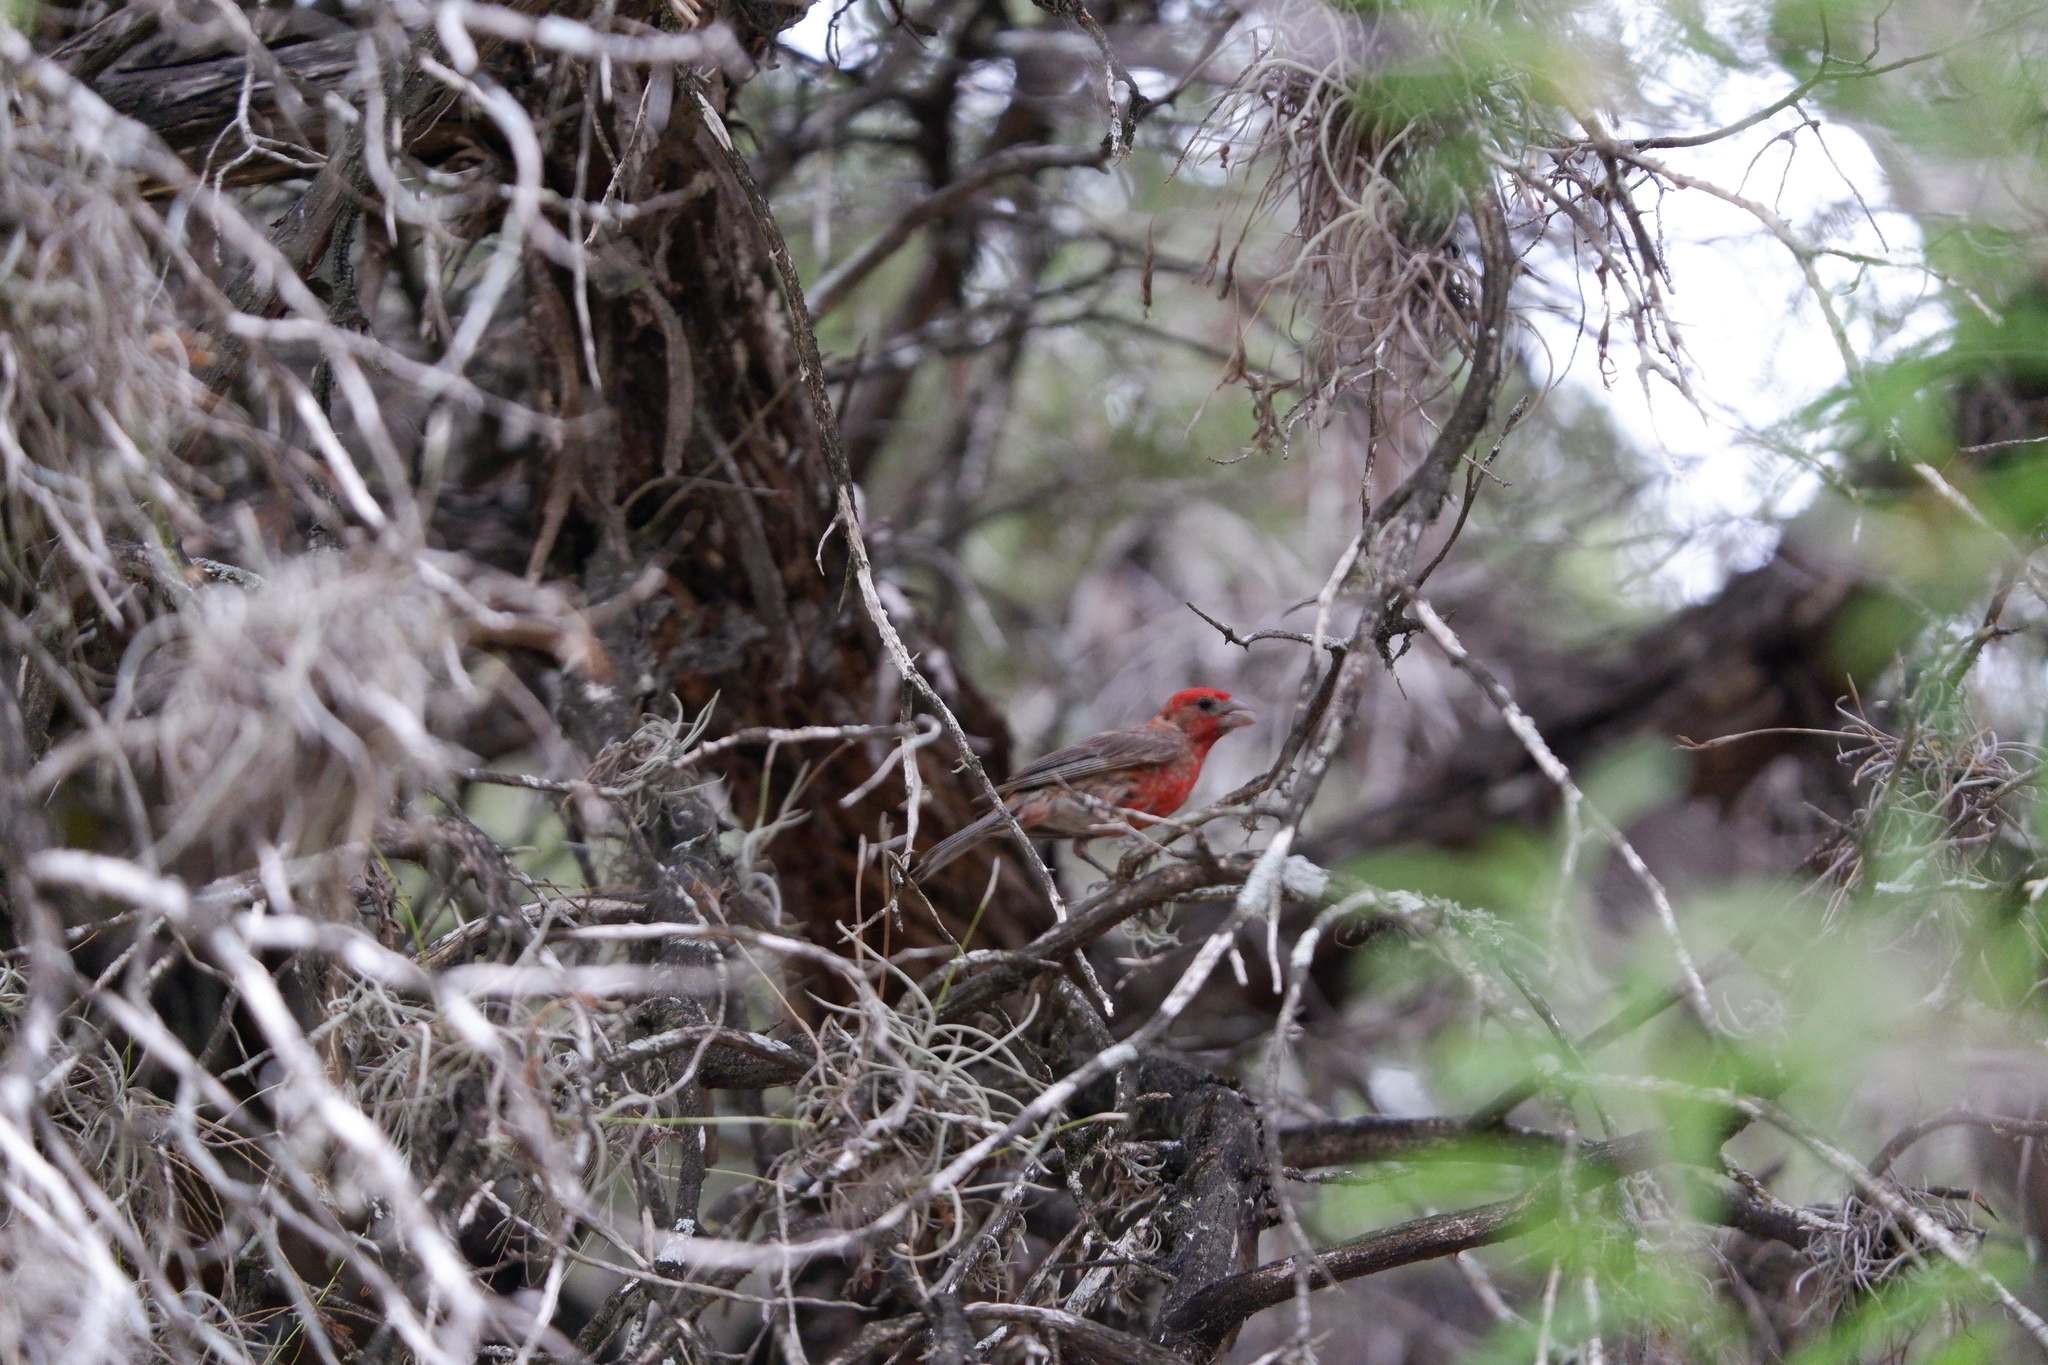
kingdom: Animalia
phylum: Chordata
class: Aves
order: Passeriformes
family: Fringillidae
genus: Haemorhous
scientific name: Haemorhous mexicanus
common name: House finch
